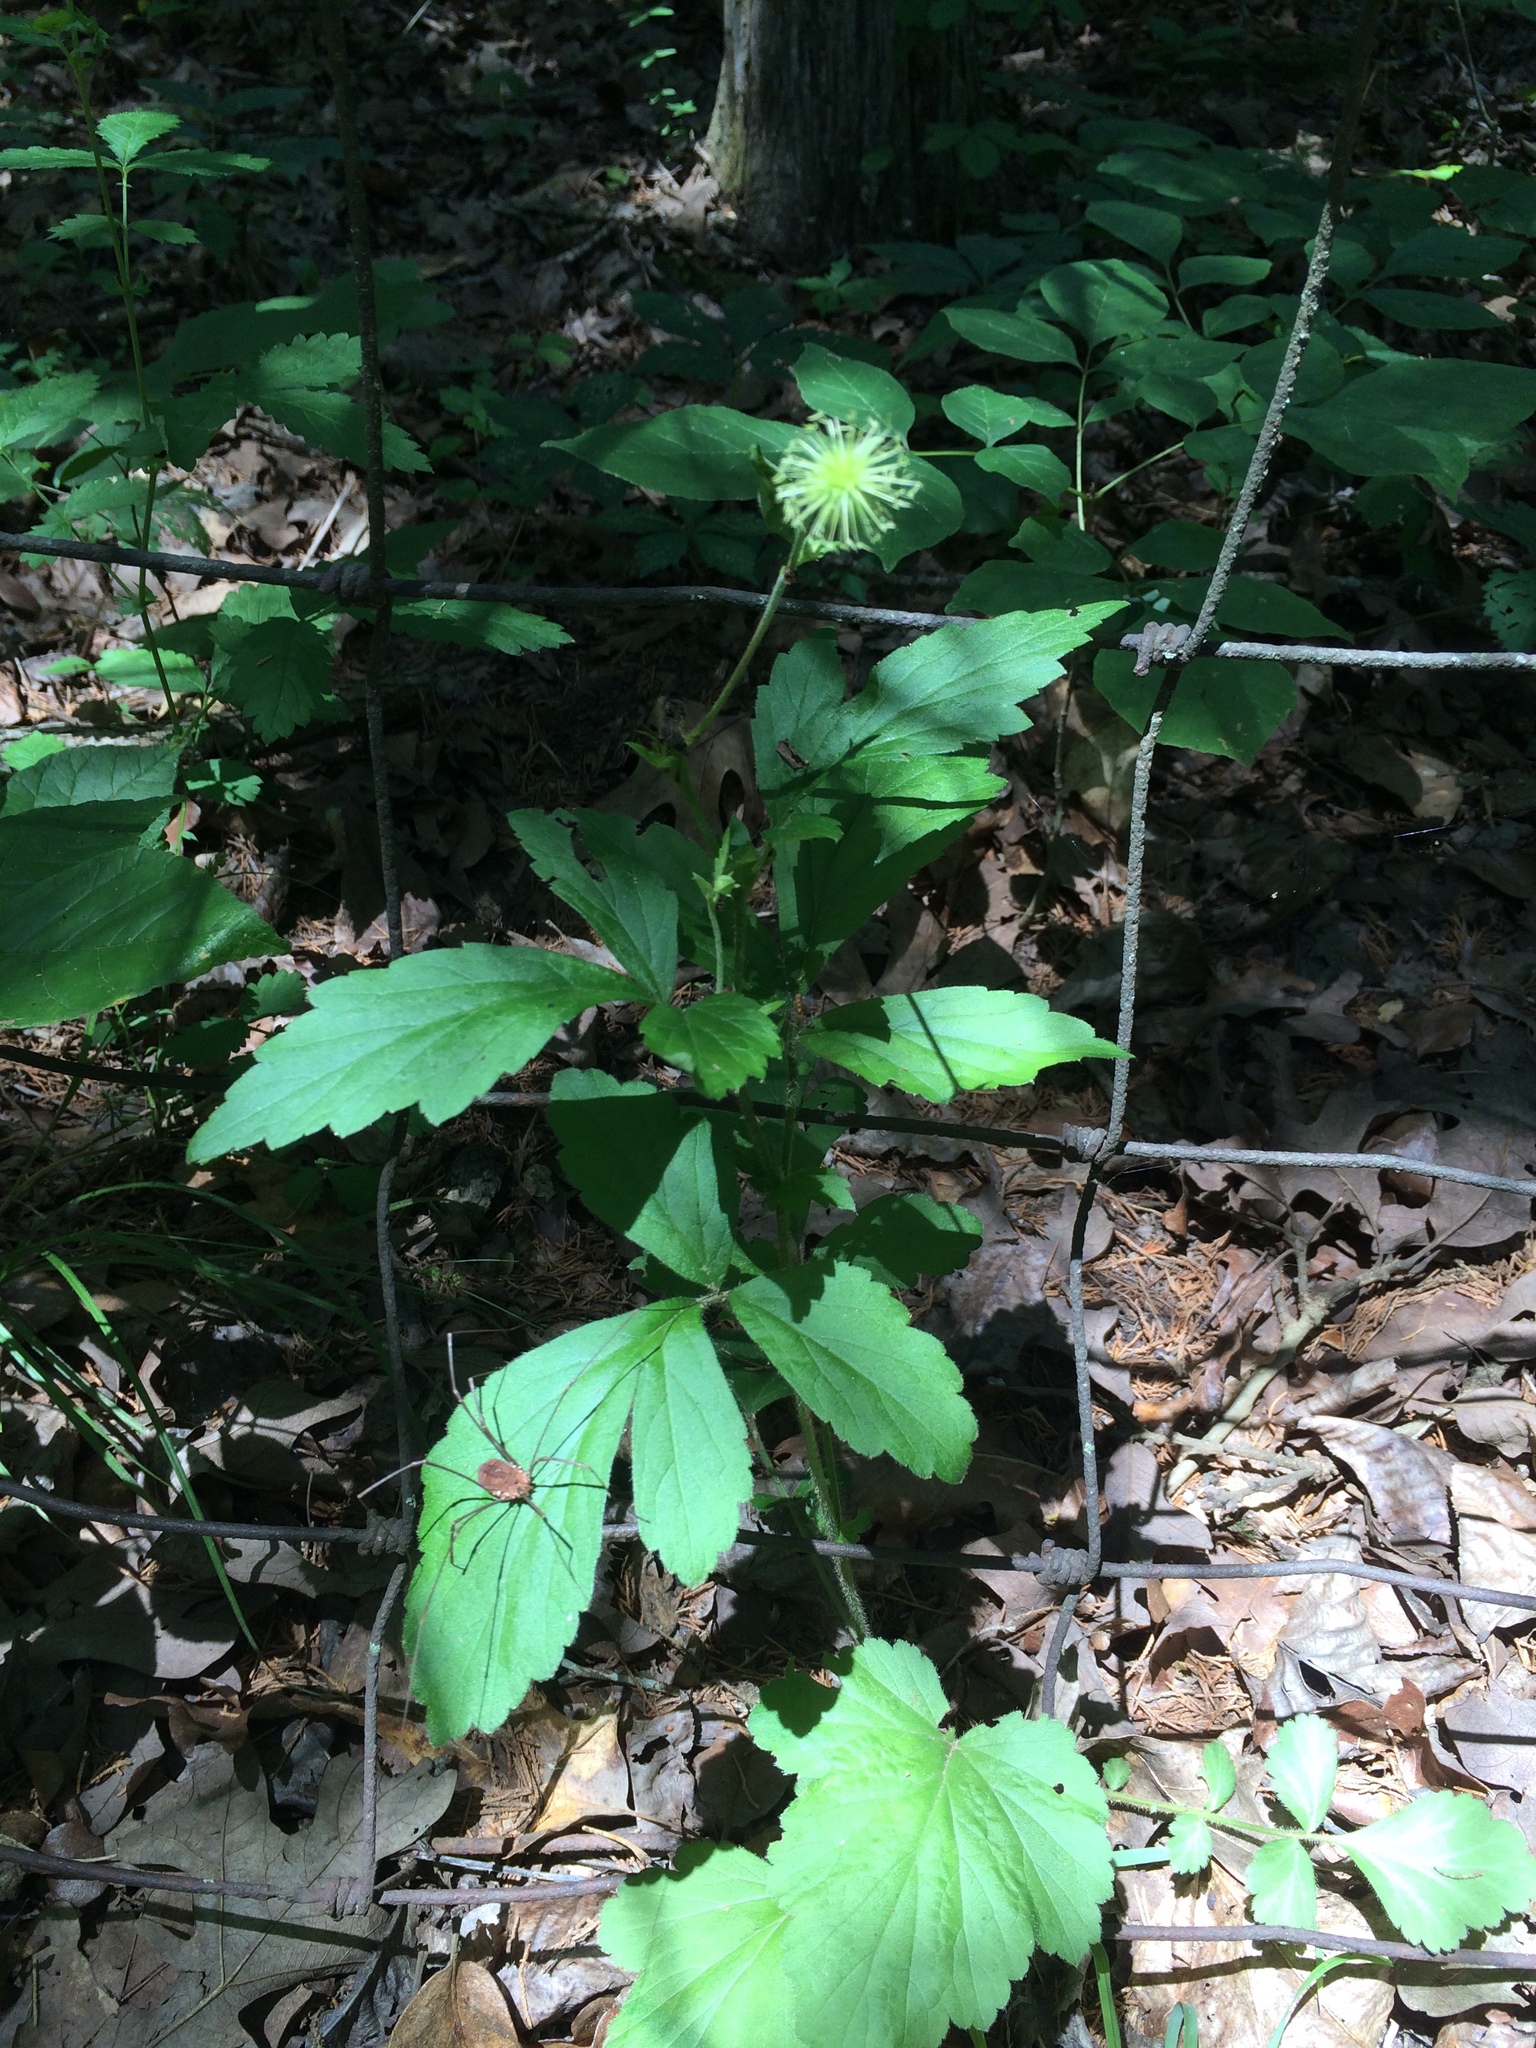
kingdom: Plantae
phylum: Tracheophyta
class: Magnoliopsida
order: Rosales
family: Rosaceae
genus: Geum
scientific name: Geum canadense
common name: White avens
